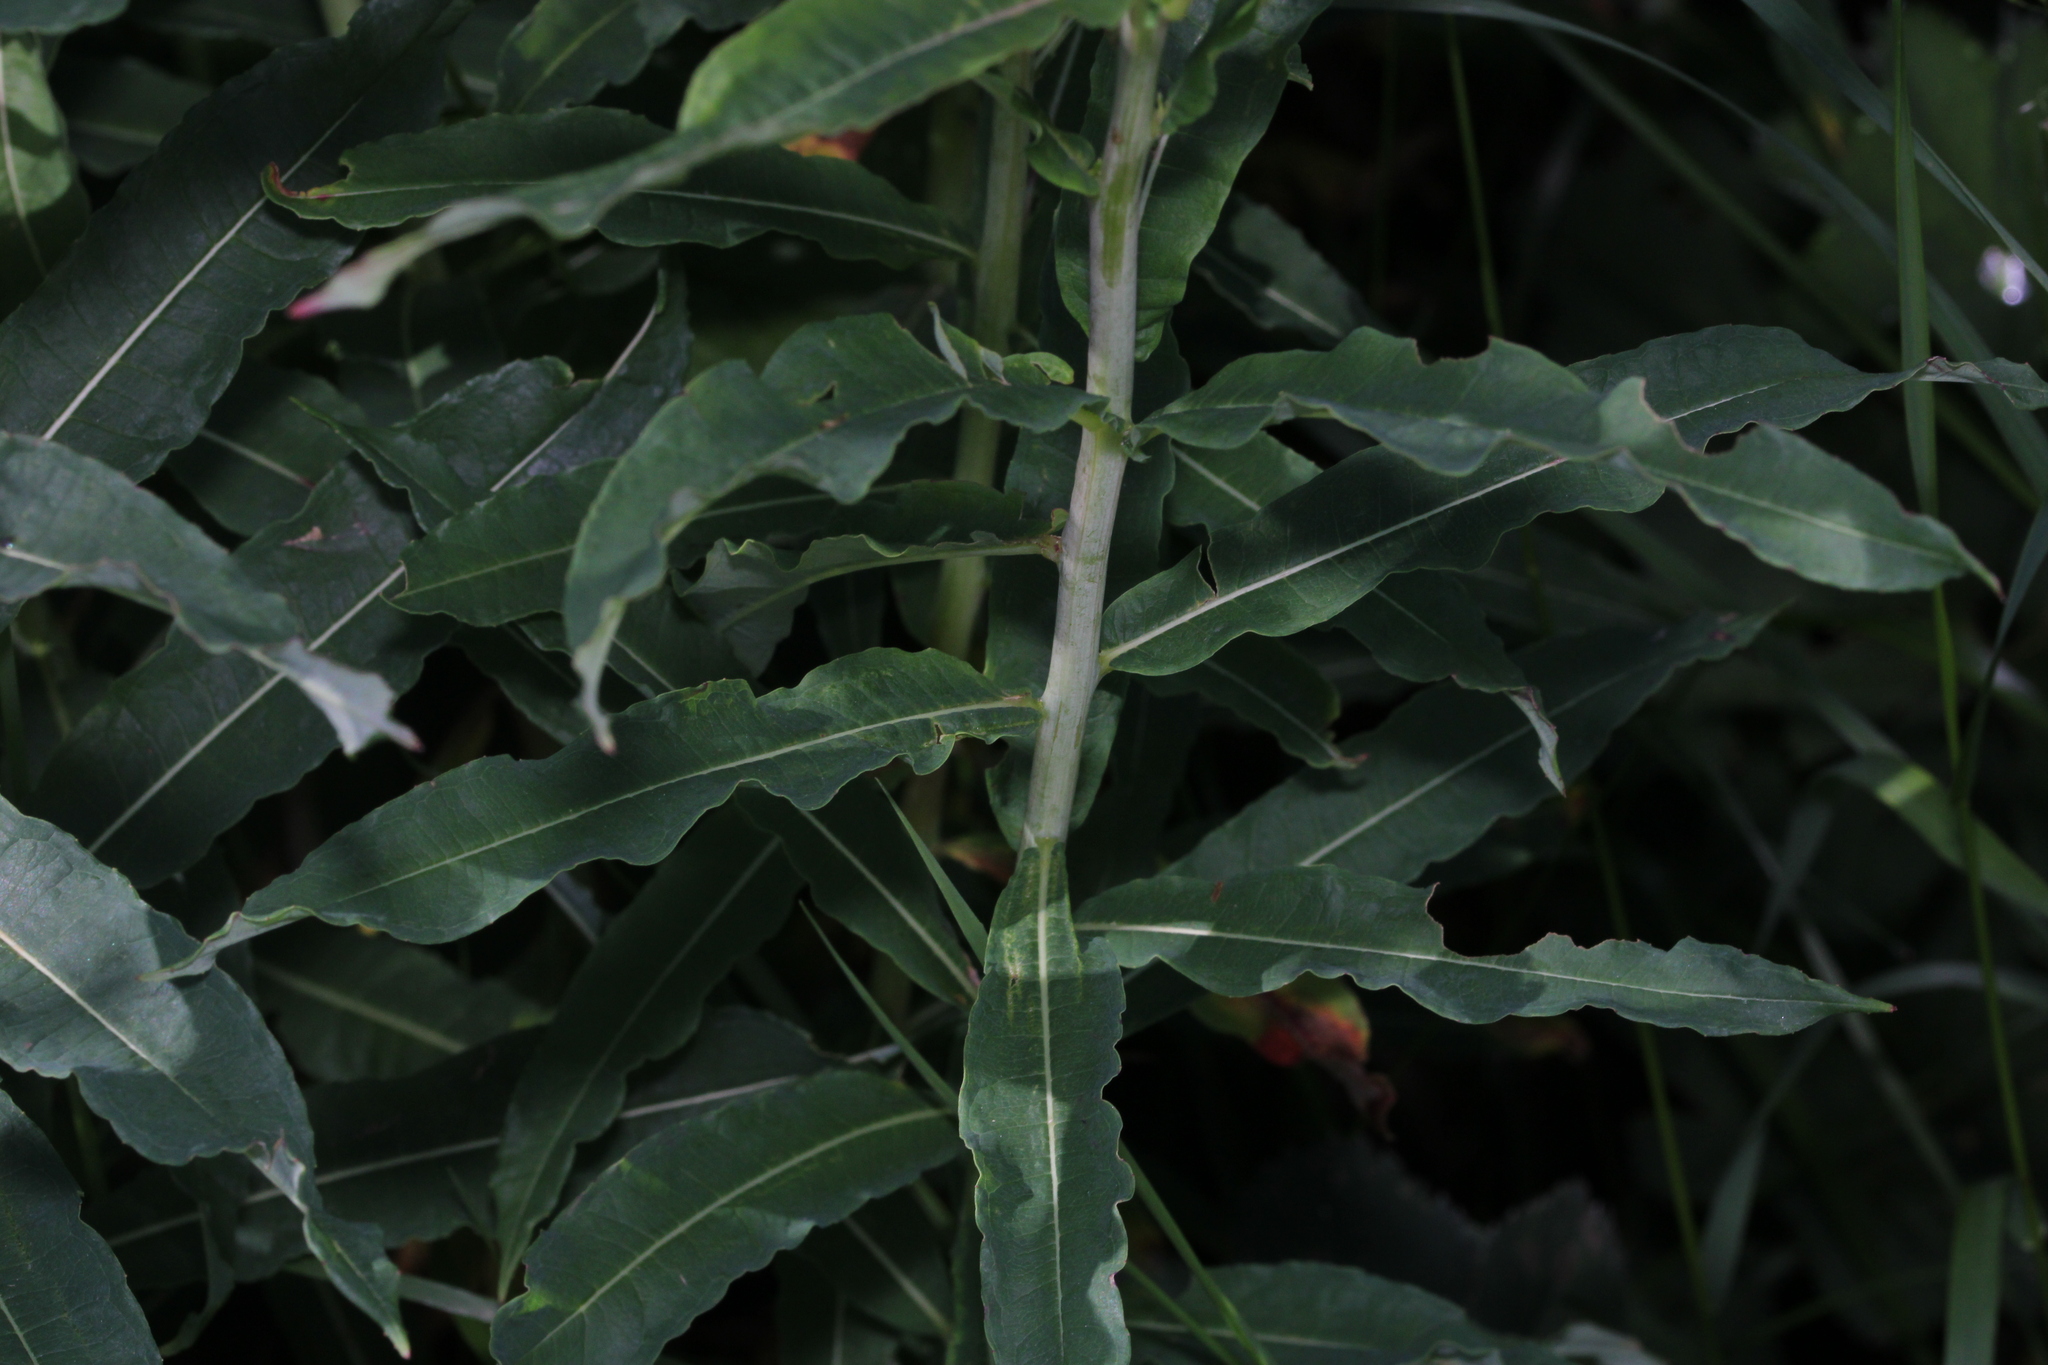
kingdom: Plantae
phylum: Tracheophyta
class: Magnoliopsida
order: Myrtales
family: Onagraceae
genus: Chamaenerion
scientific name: Chamaenerion angustifolium
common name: Fireweed
